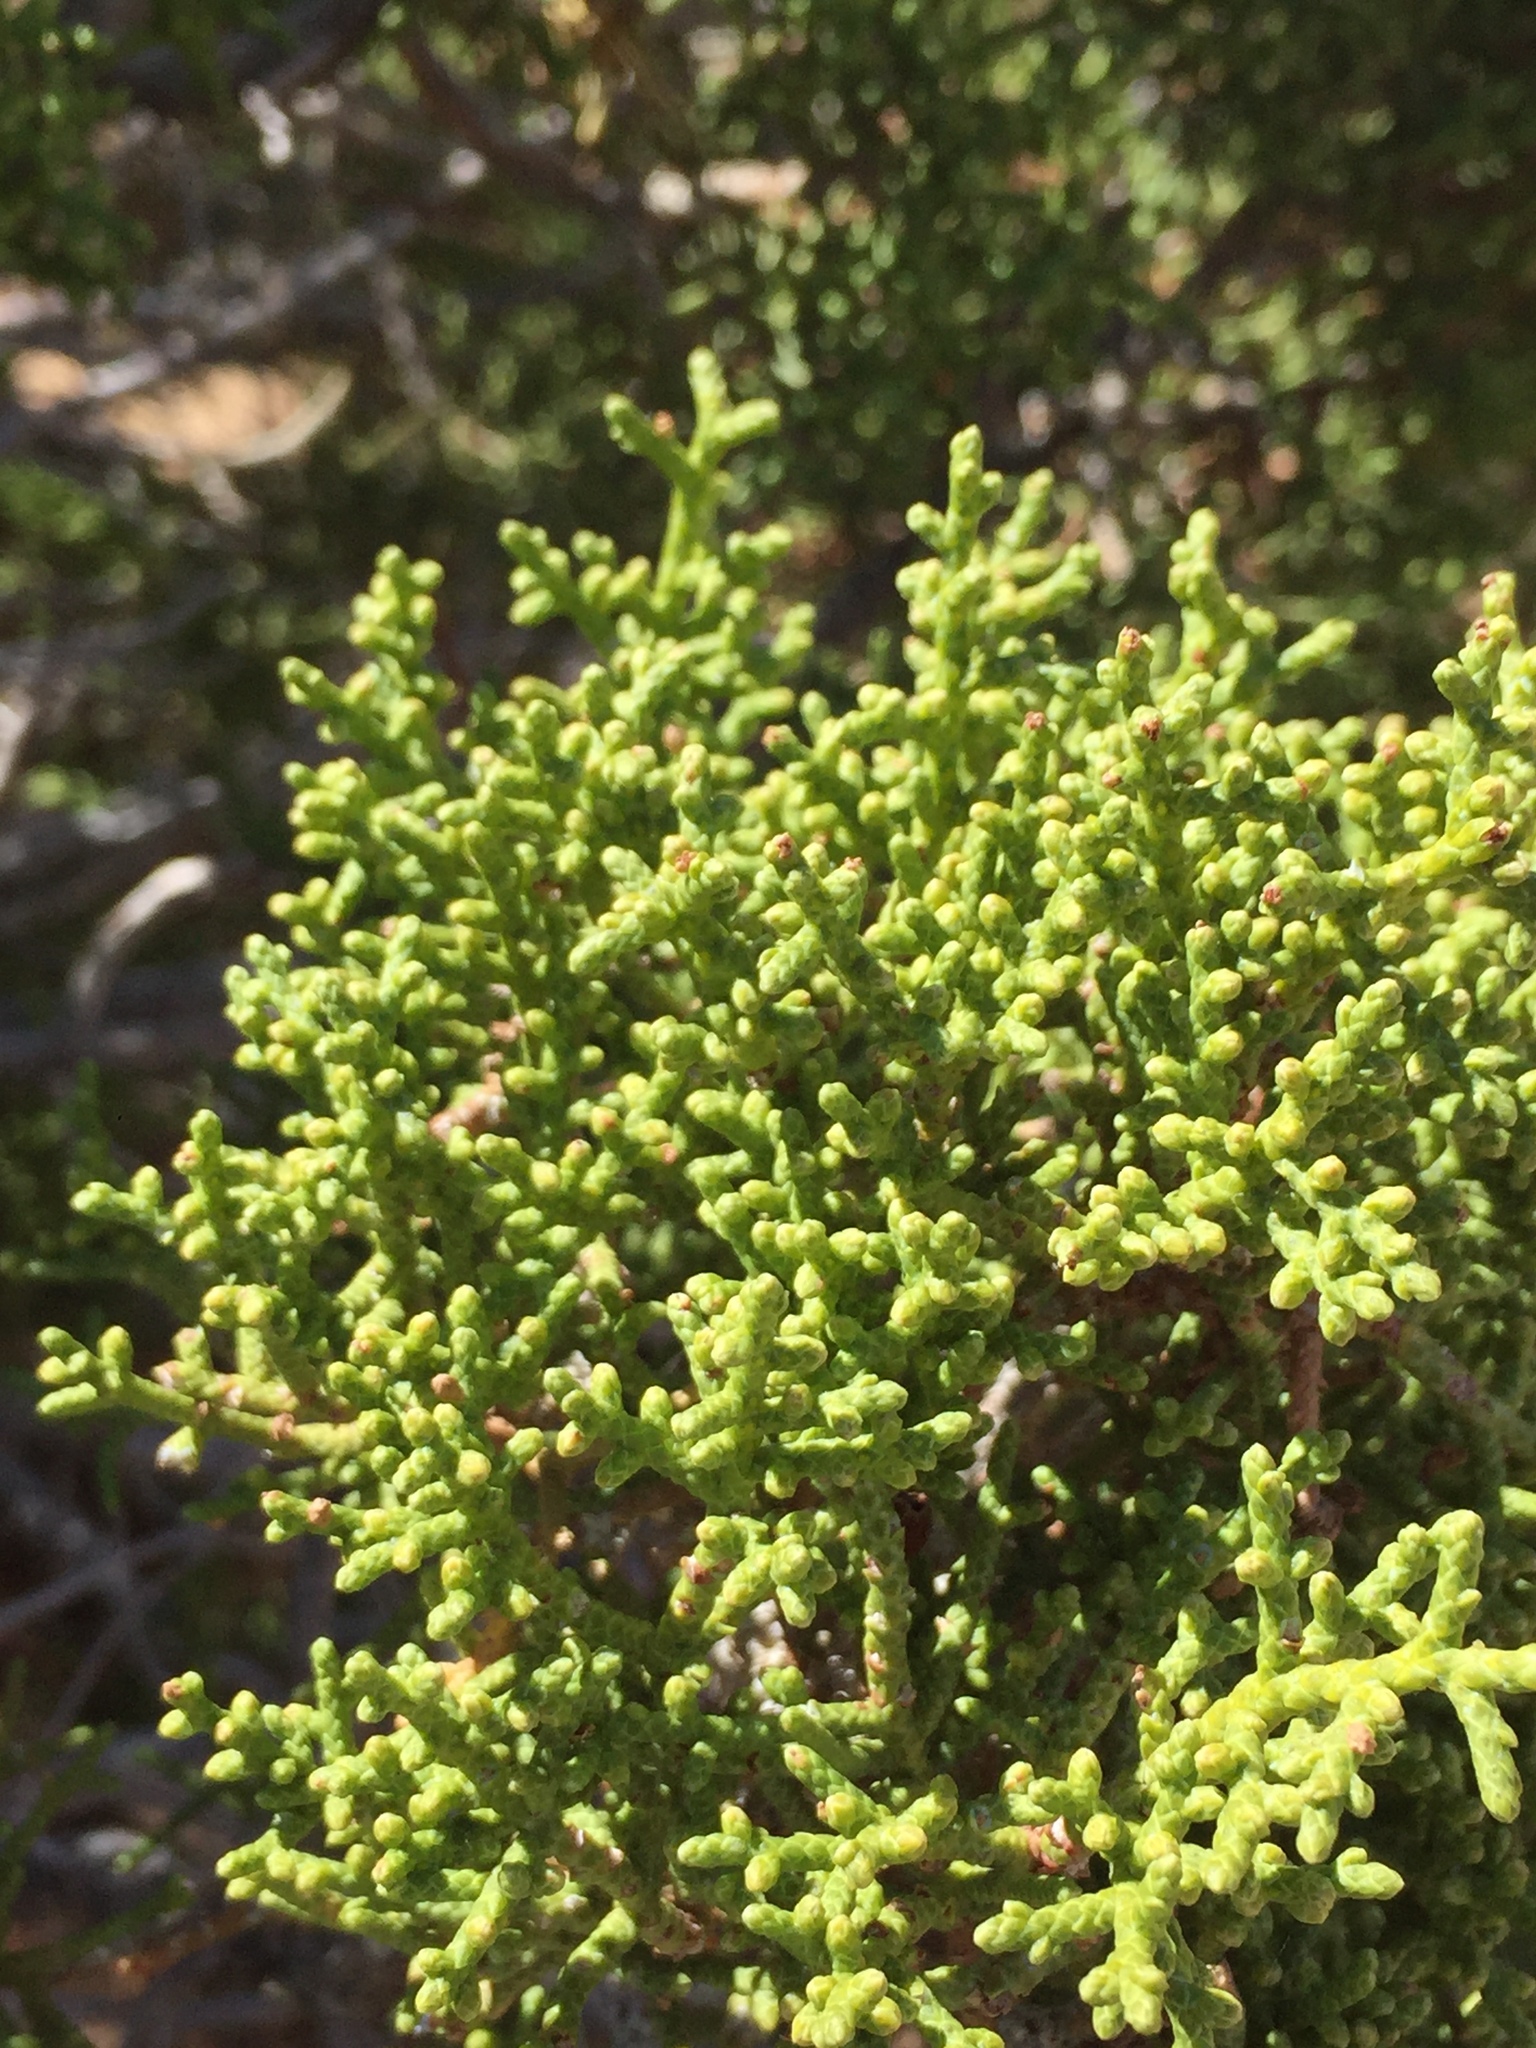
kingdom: Plantae
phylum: Tracheophyta
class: Pinopsida
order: Pinales
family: Cupressaceae
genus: Juniperus
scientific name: Juniperus californica
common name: California juniper
